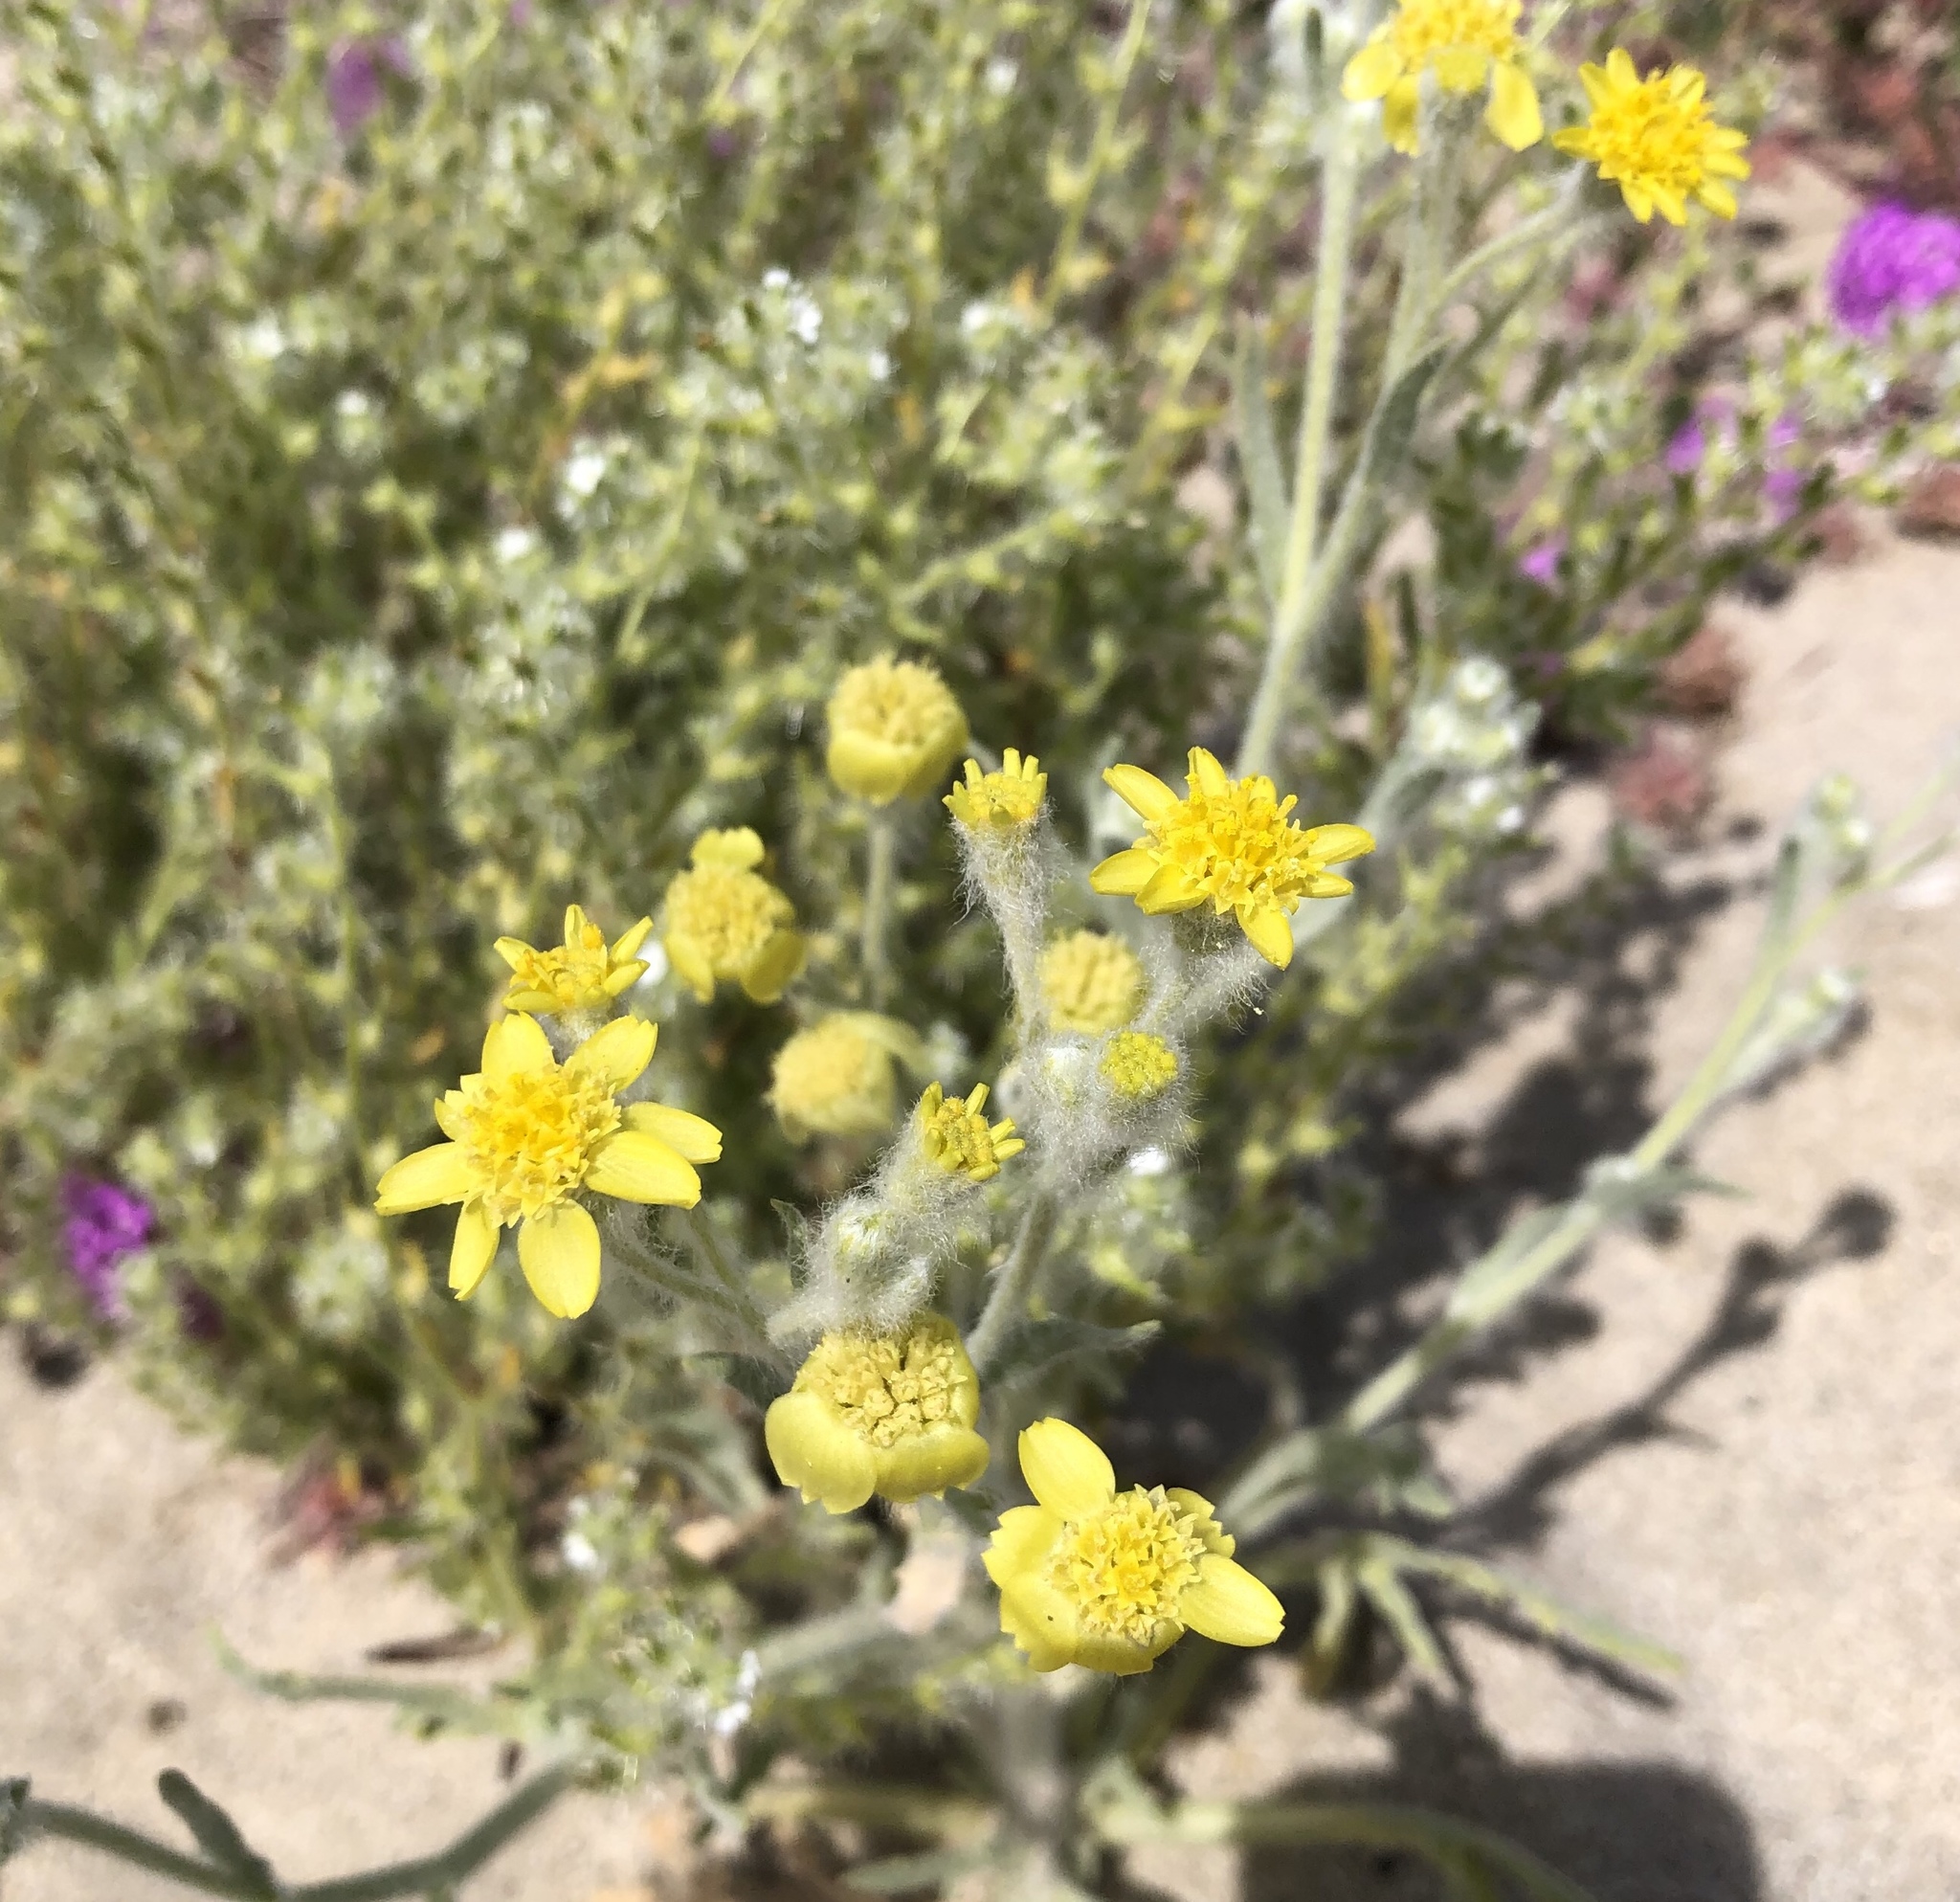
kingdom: Plantae
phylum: Tracheophyta
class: Magnoliopsida
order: Asterales
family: Asteraceae
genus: Baileya
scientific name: Baileya pauciradiata
